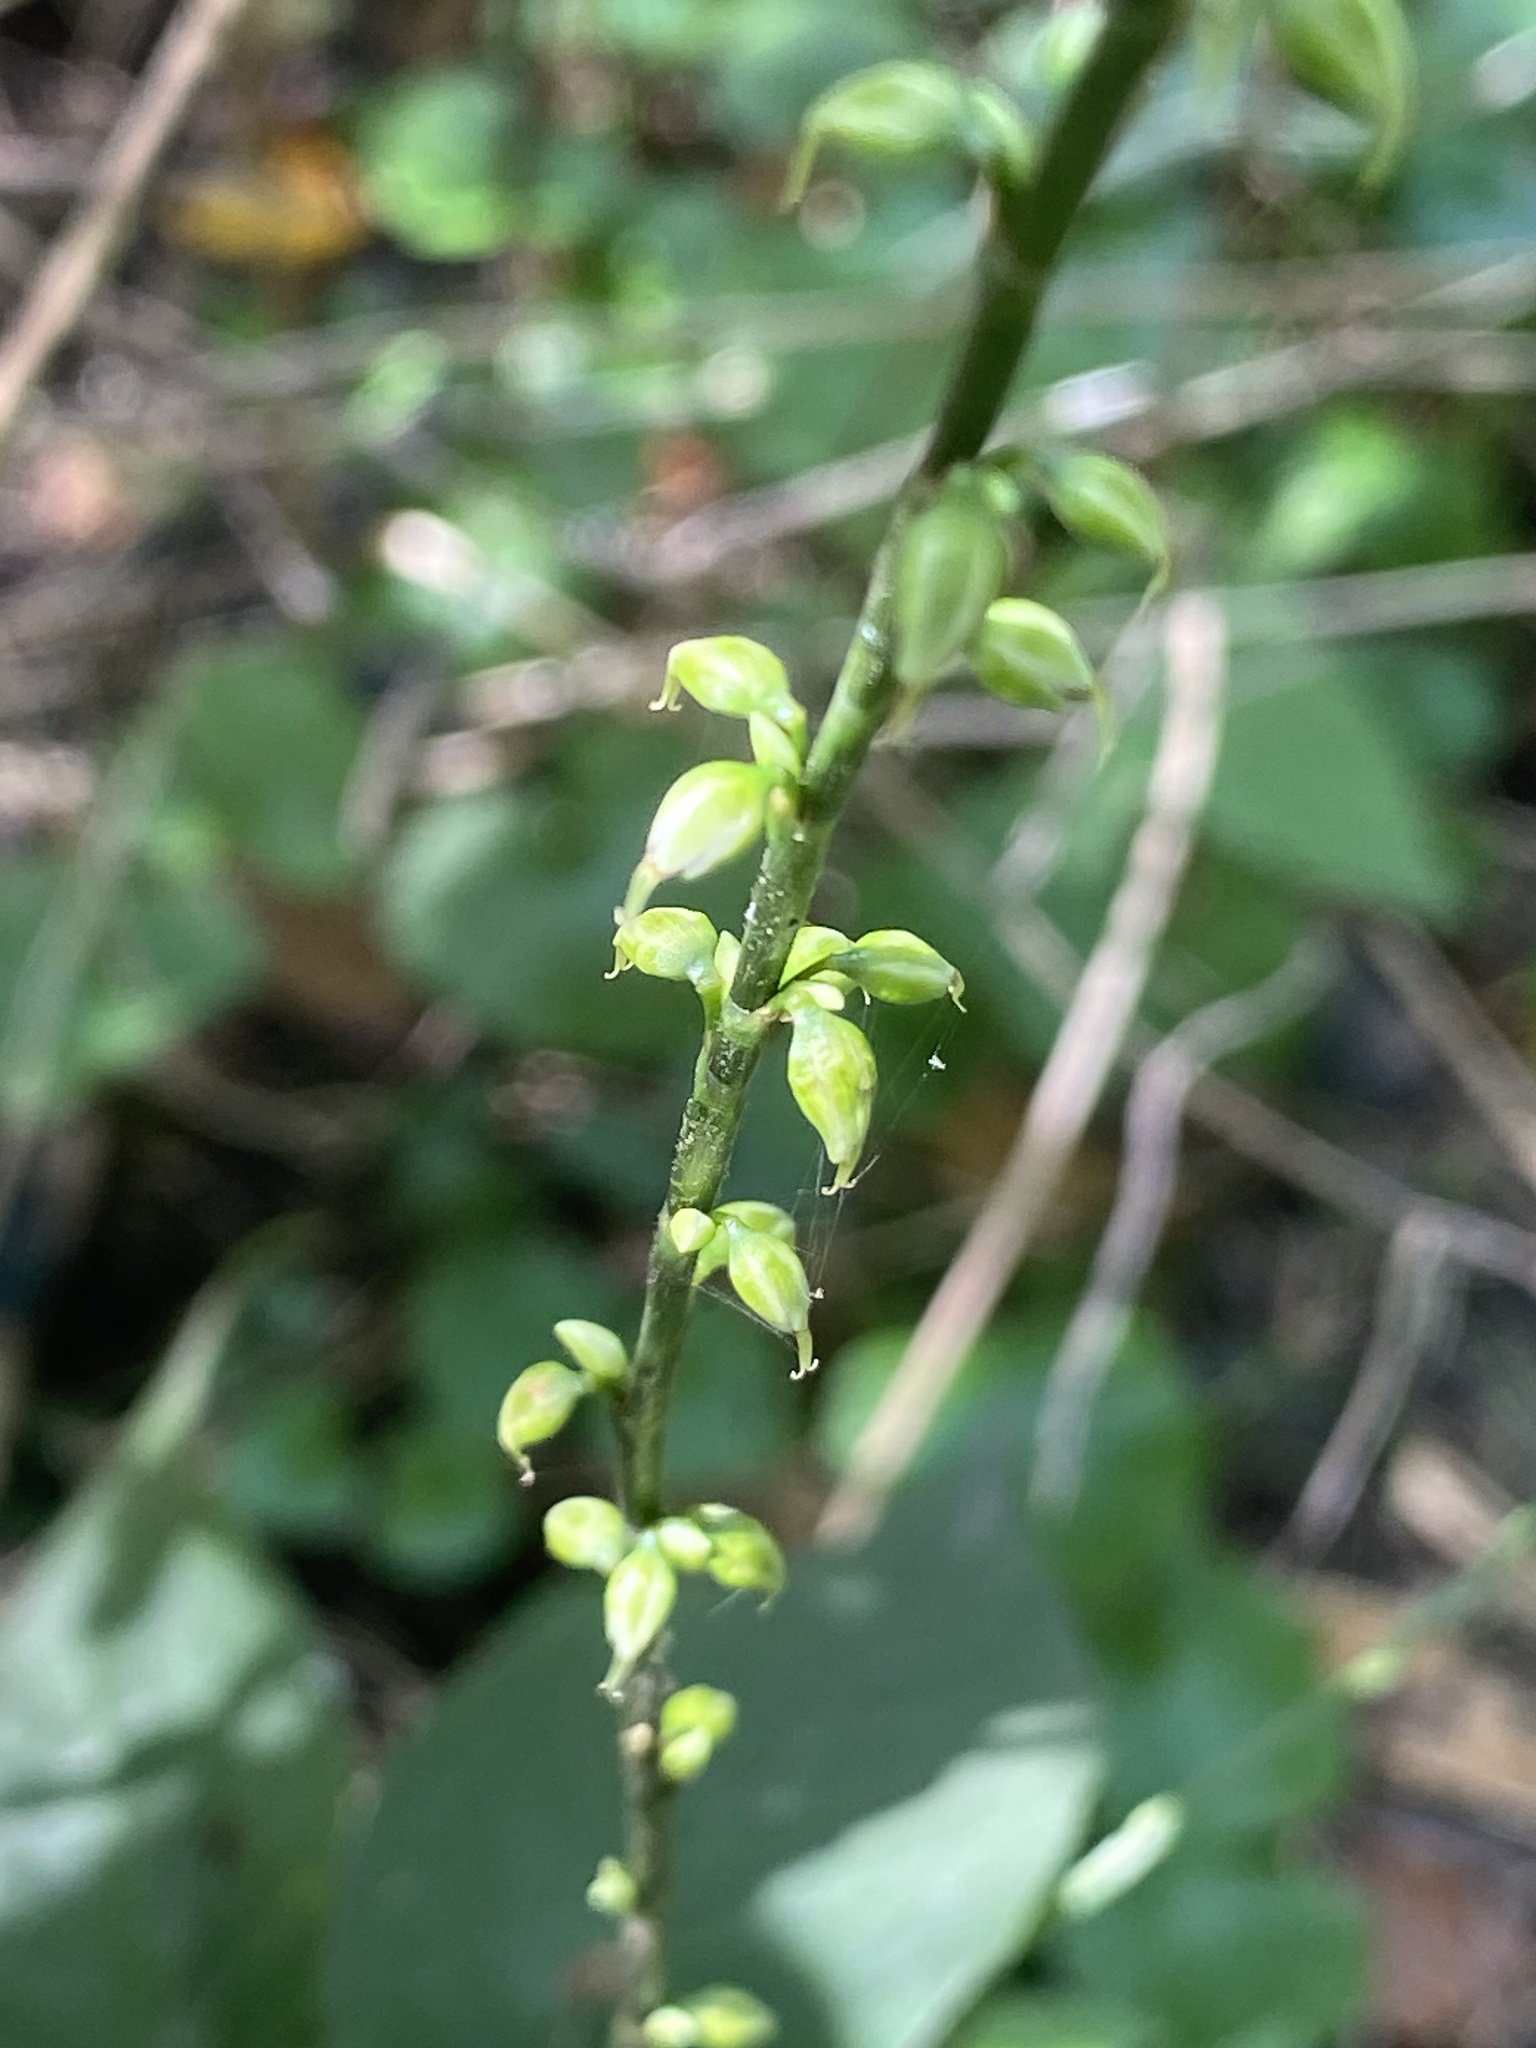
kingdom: Plantae
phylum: Tracheophyta
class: Magnoliopsida
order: Caryophyllales
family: Polygonaceae
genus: Persicaria
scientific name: Persicaria virginiana
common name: Jumpseed
